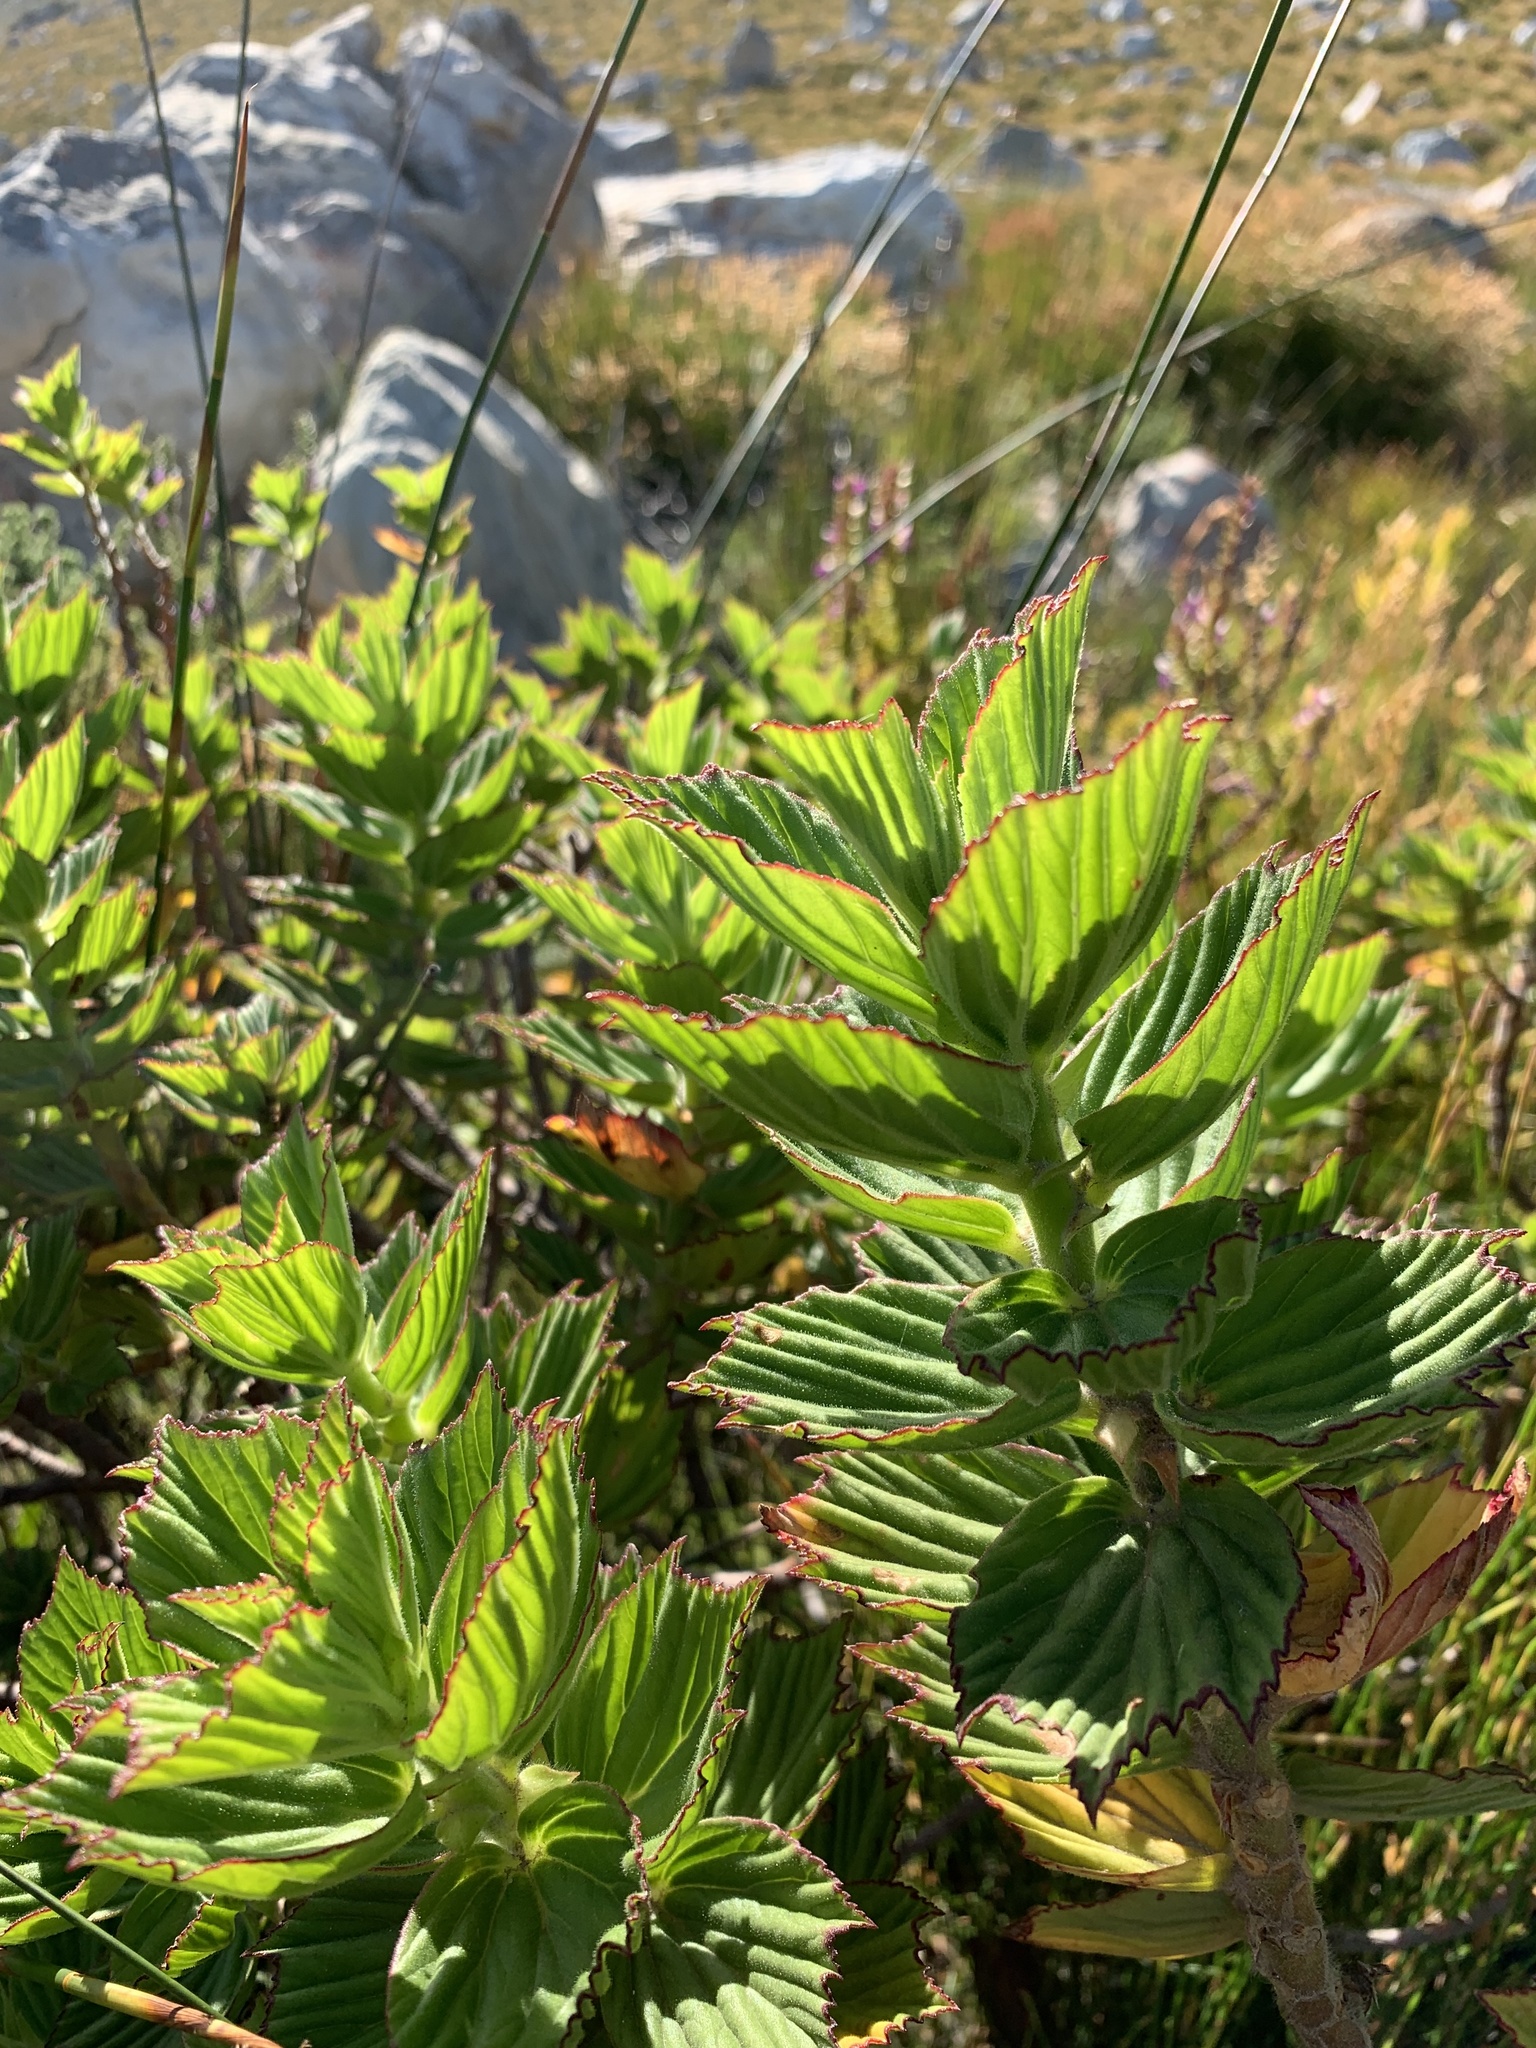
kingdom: Plantae
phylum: Tracheophyta
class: Magnoliopsida
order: Geraniales
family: Geraniaceae
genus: Pelargonium
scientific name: Pelargonium cucullatum
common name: Tree pelargonium
